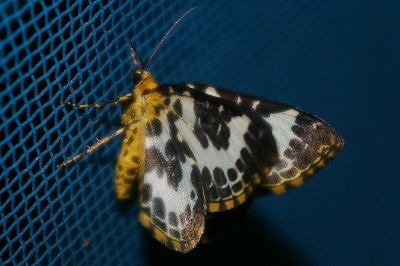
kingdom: Animalia
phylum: Arthropoda
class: Insecta
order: Lepidoptera
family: Geometridae
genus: Gandaritis
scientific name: Gandaritis
